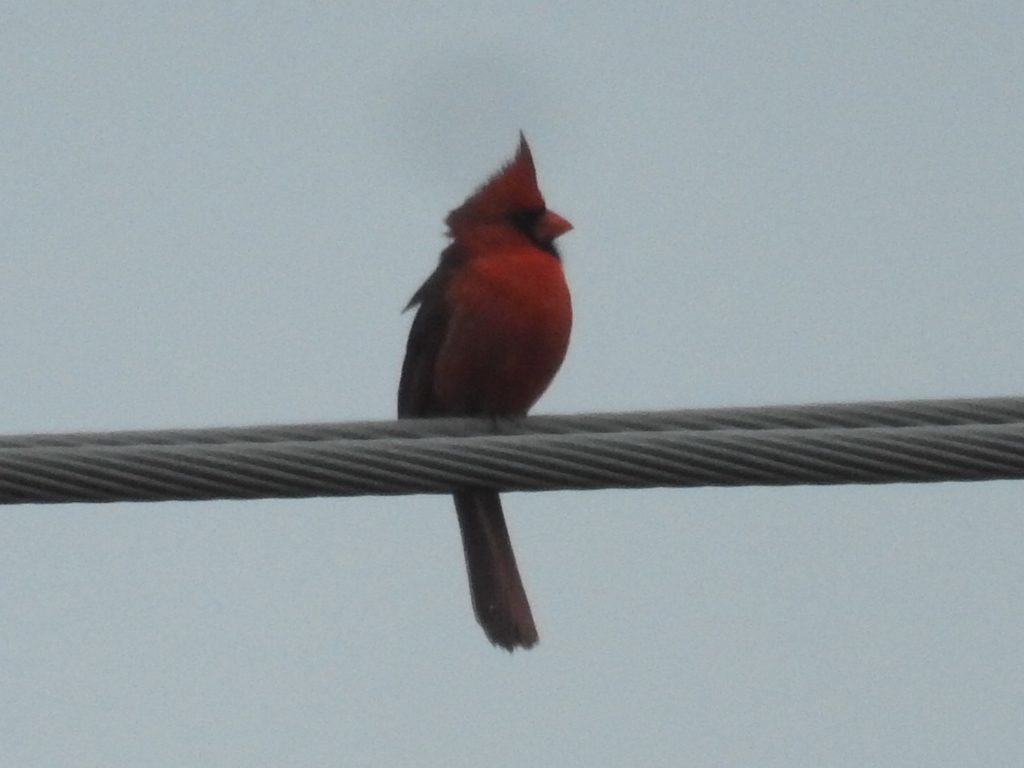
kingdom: Animalia
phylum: Chordata
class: Aves
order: Passeriformes
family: Cardinalidae
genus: Cardinalis
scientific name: Cardinalis cardinalis
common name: Northern cardinal
